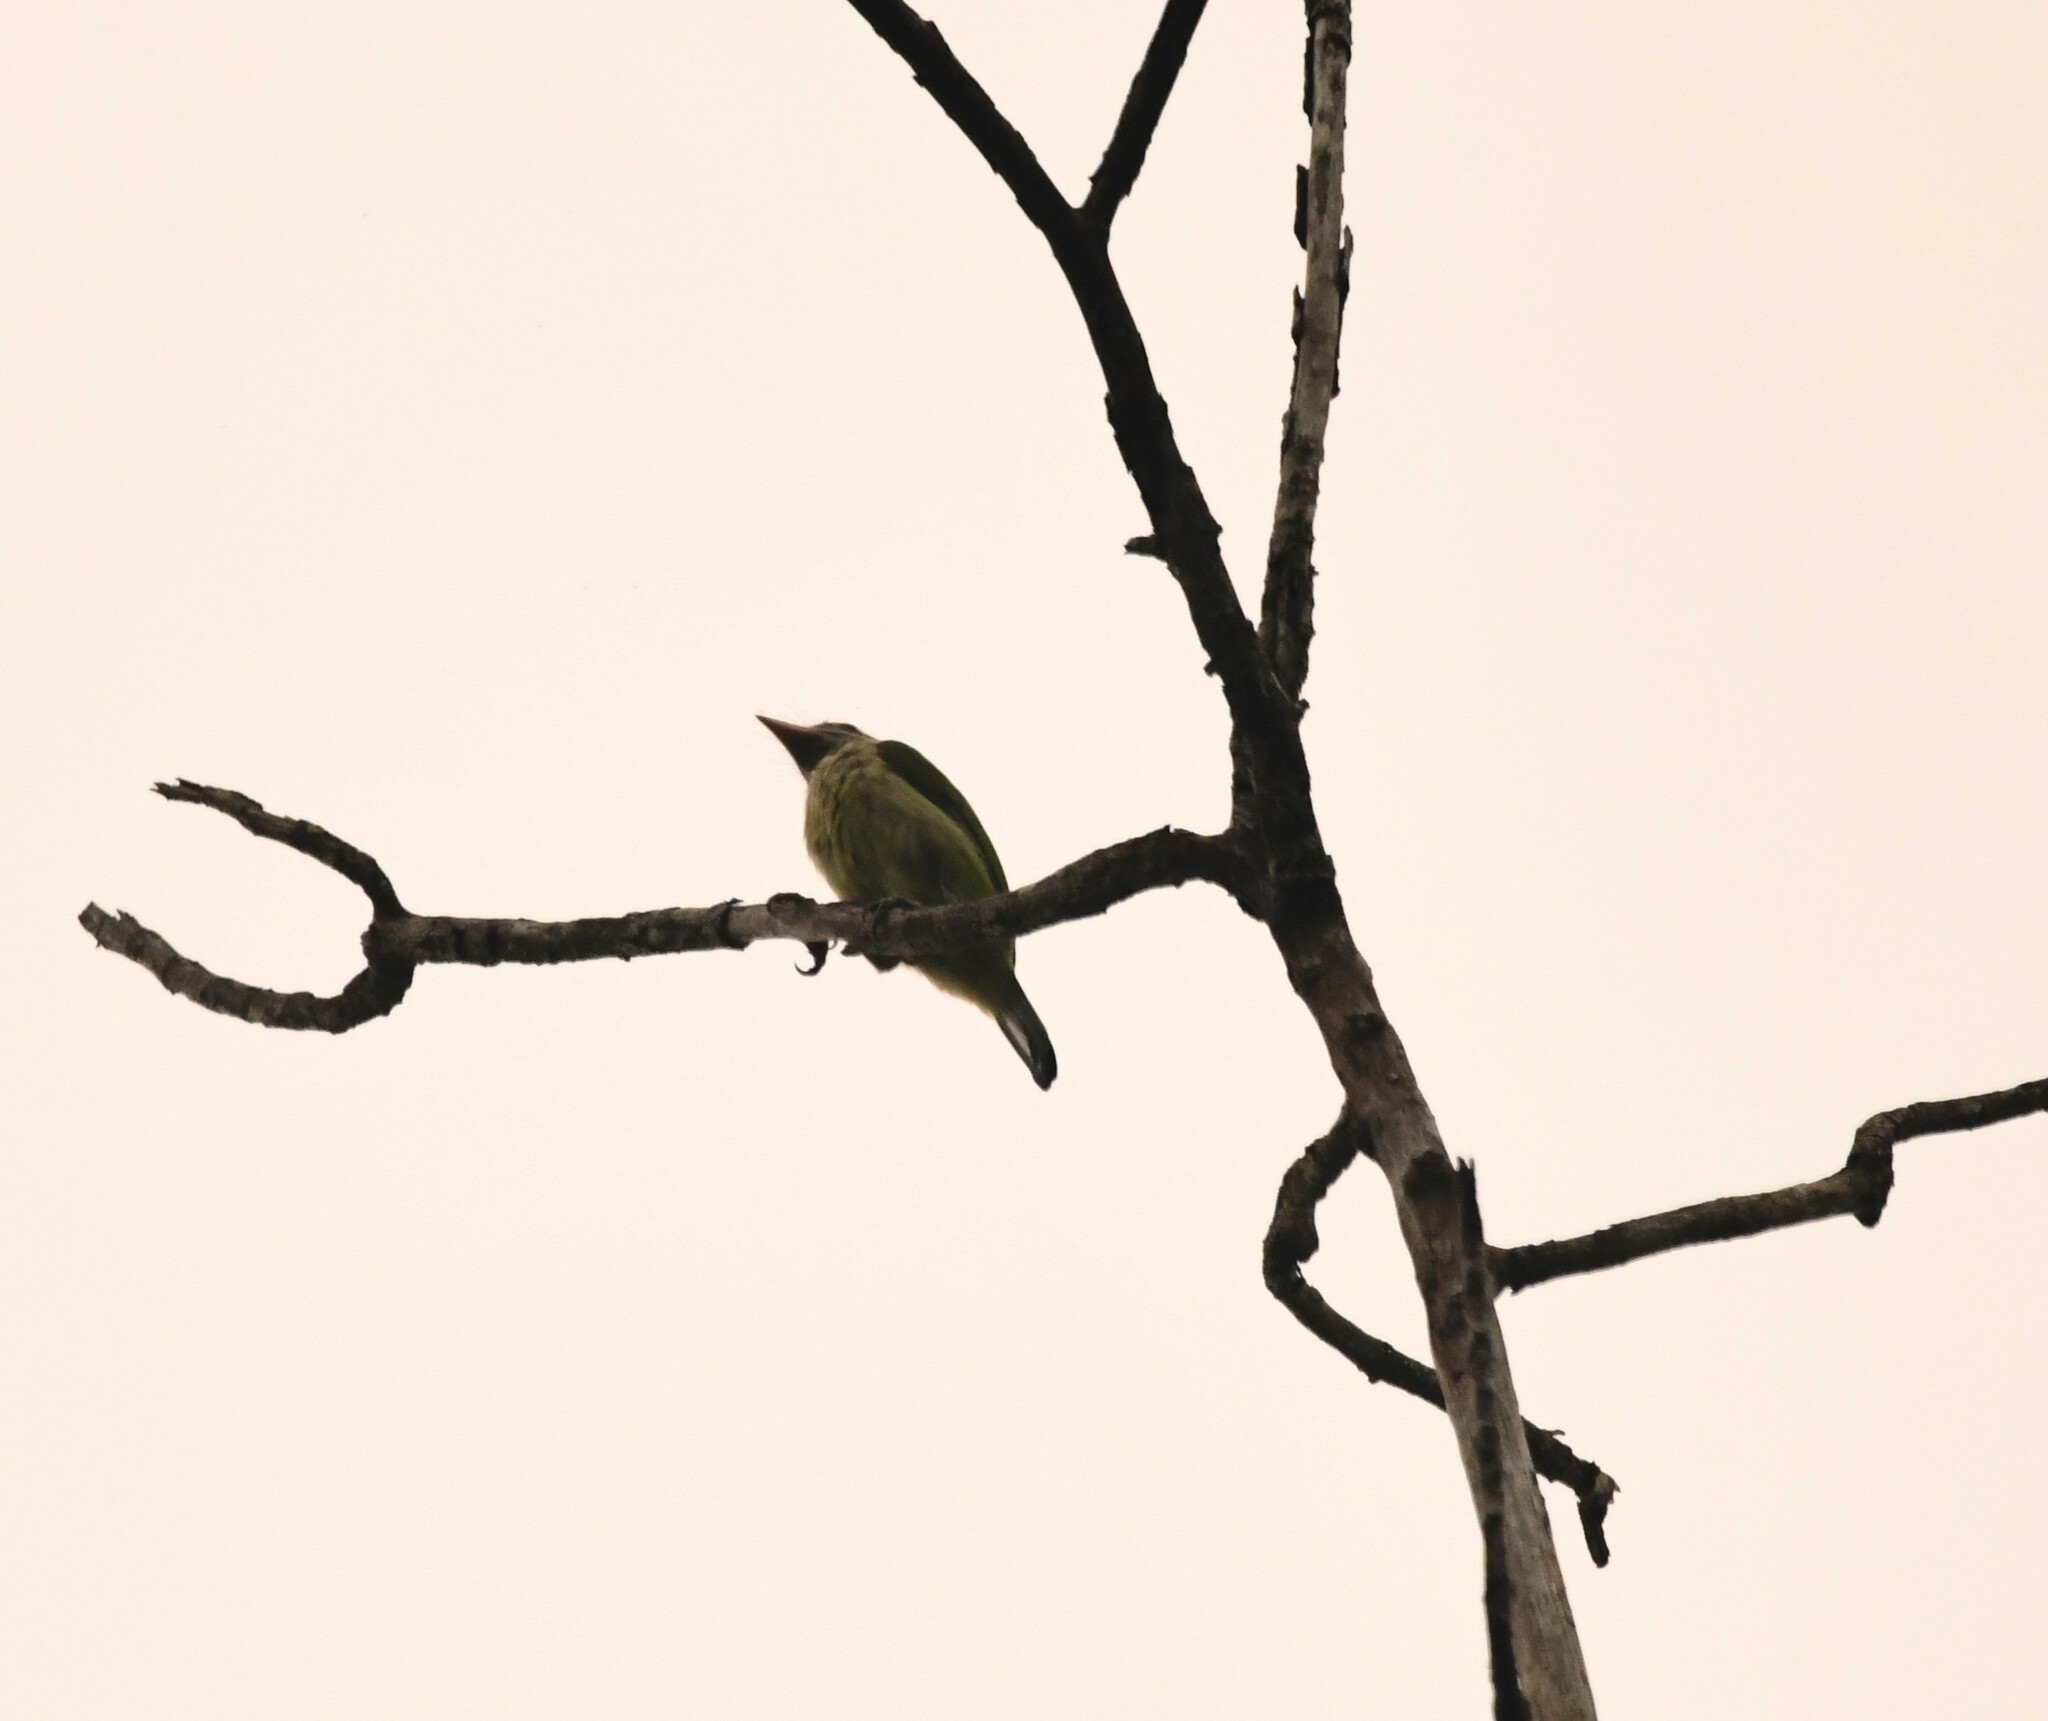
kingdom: Animalia
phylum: Chordata
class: Aves
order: Piciformes
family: Megalaimidae
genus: Psilopogon
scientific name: Psilopogon viridis
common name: White-cheeked barbet
